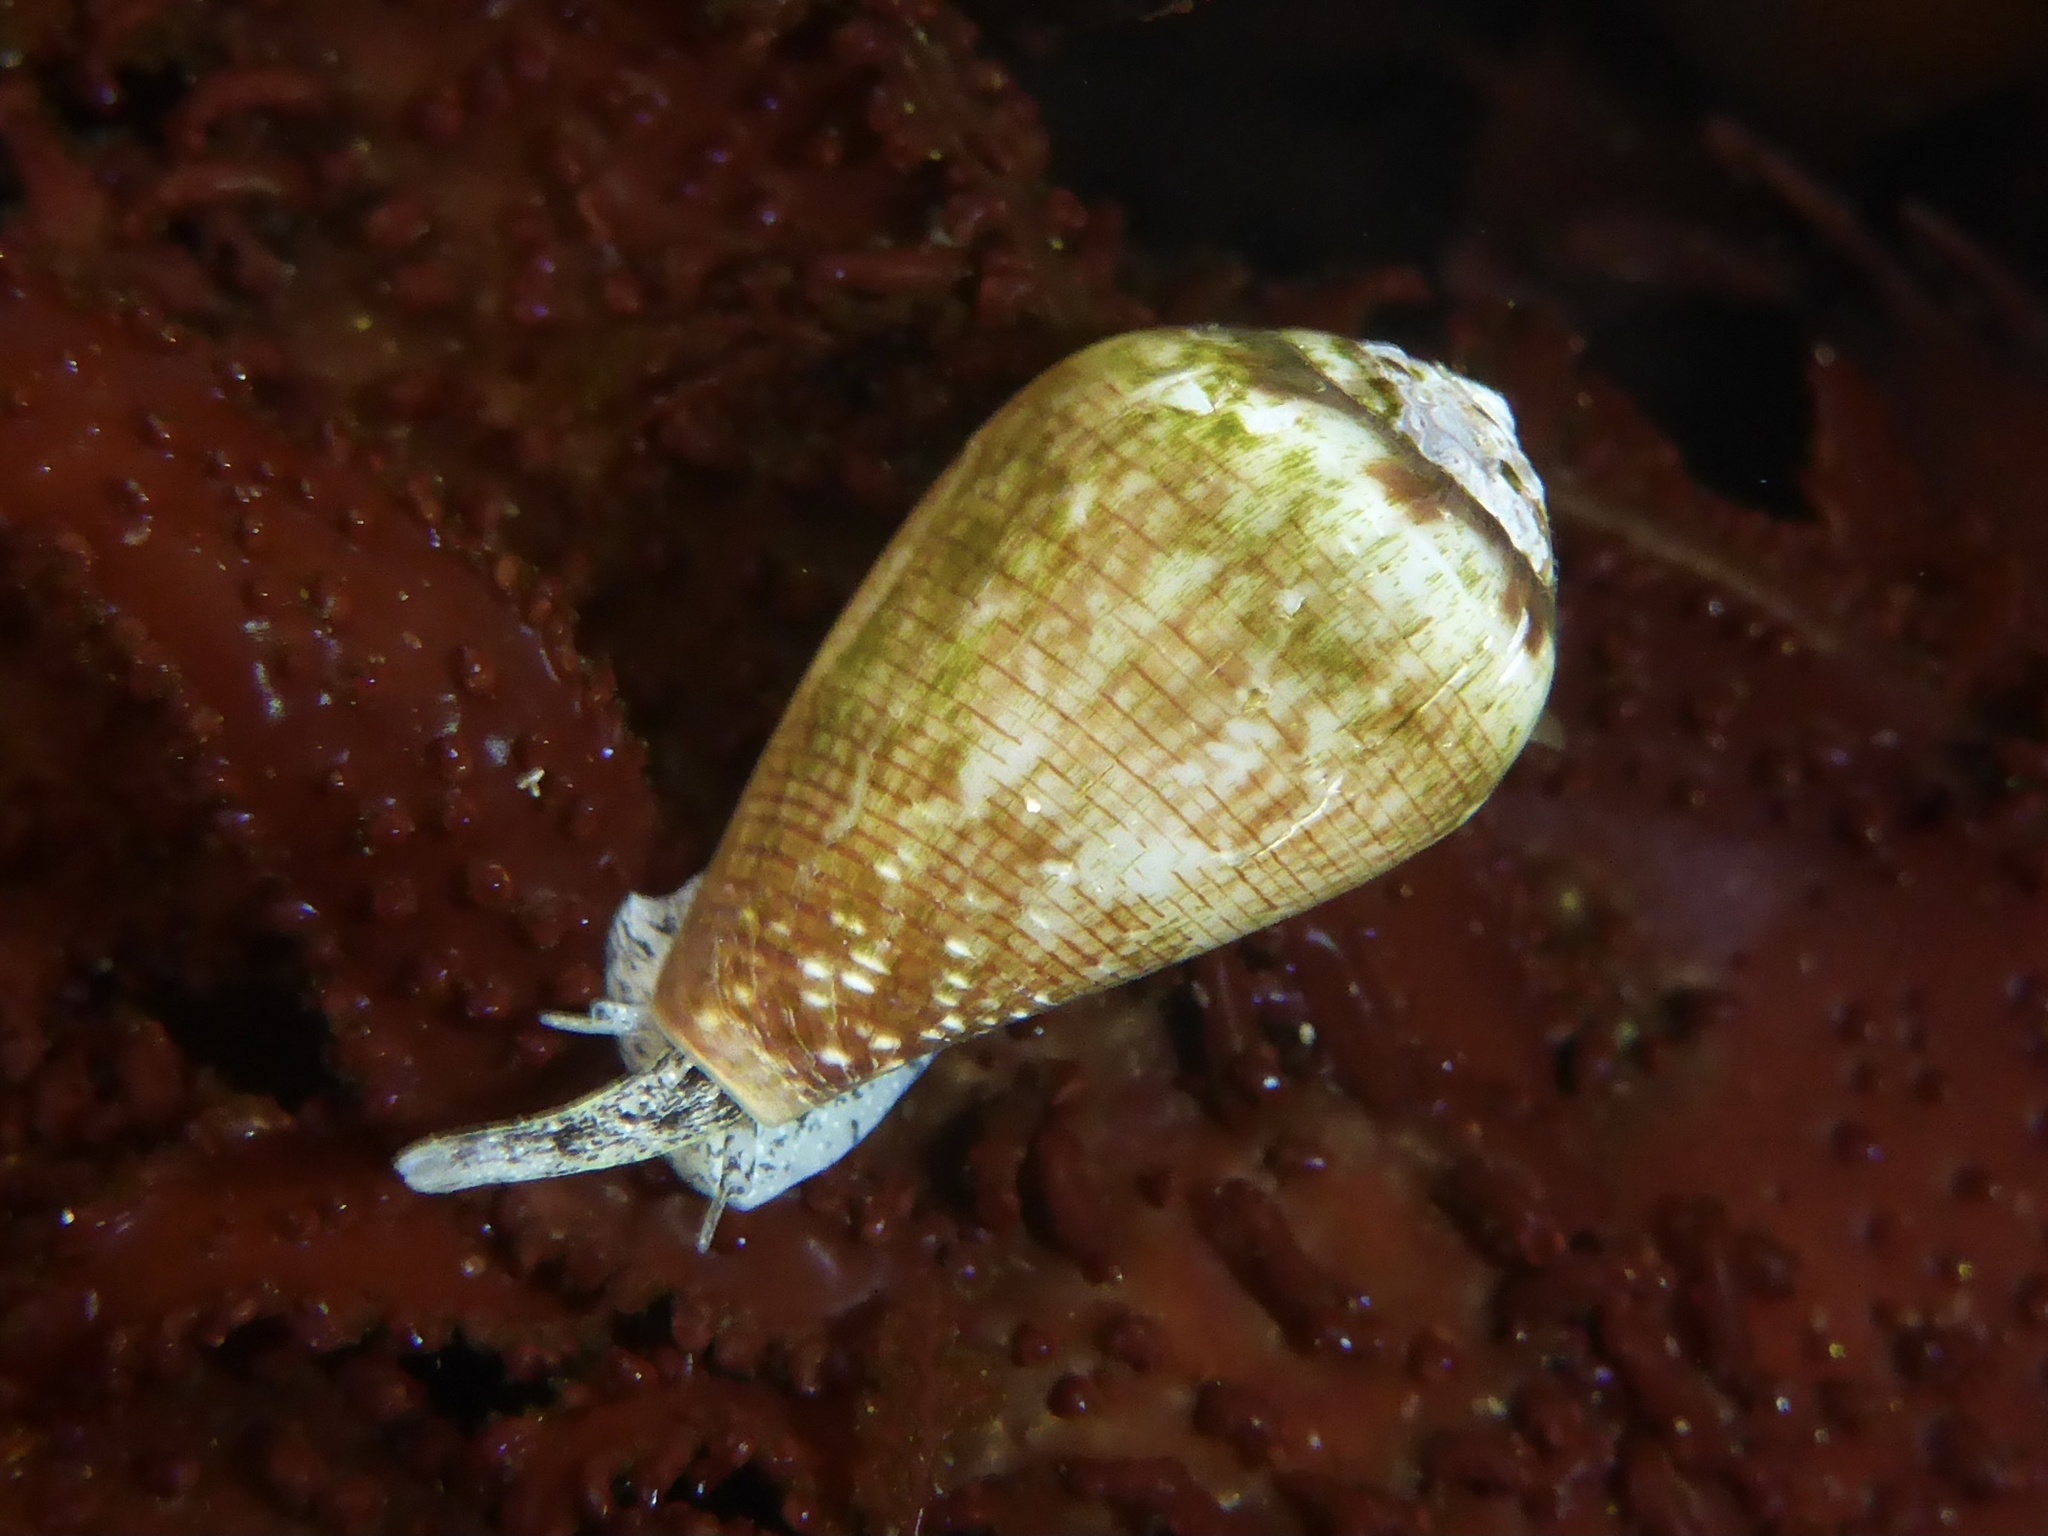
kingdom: Animalia
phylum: Mollusca
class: Gastropoda
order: Neogastropoda
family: Conidae
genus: Californiconus
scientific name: Californiconus californicus
